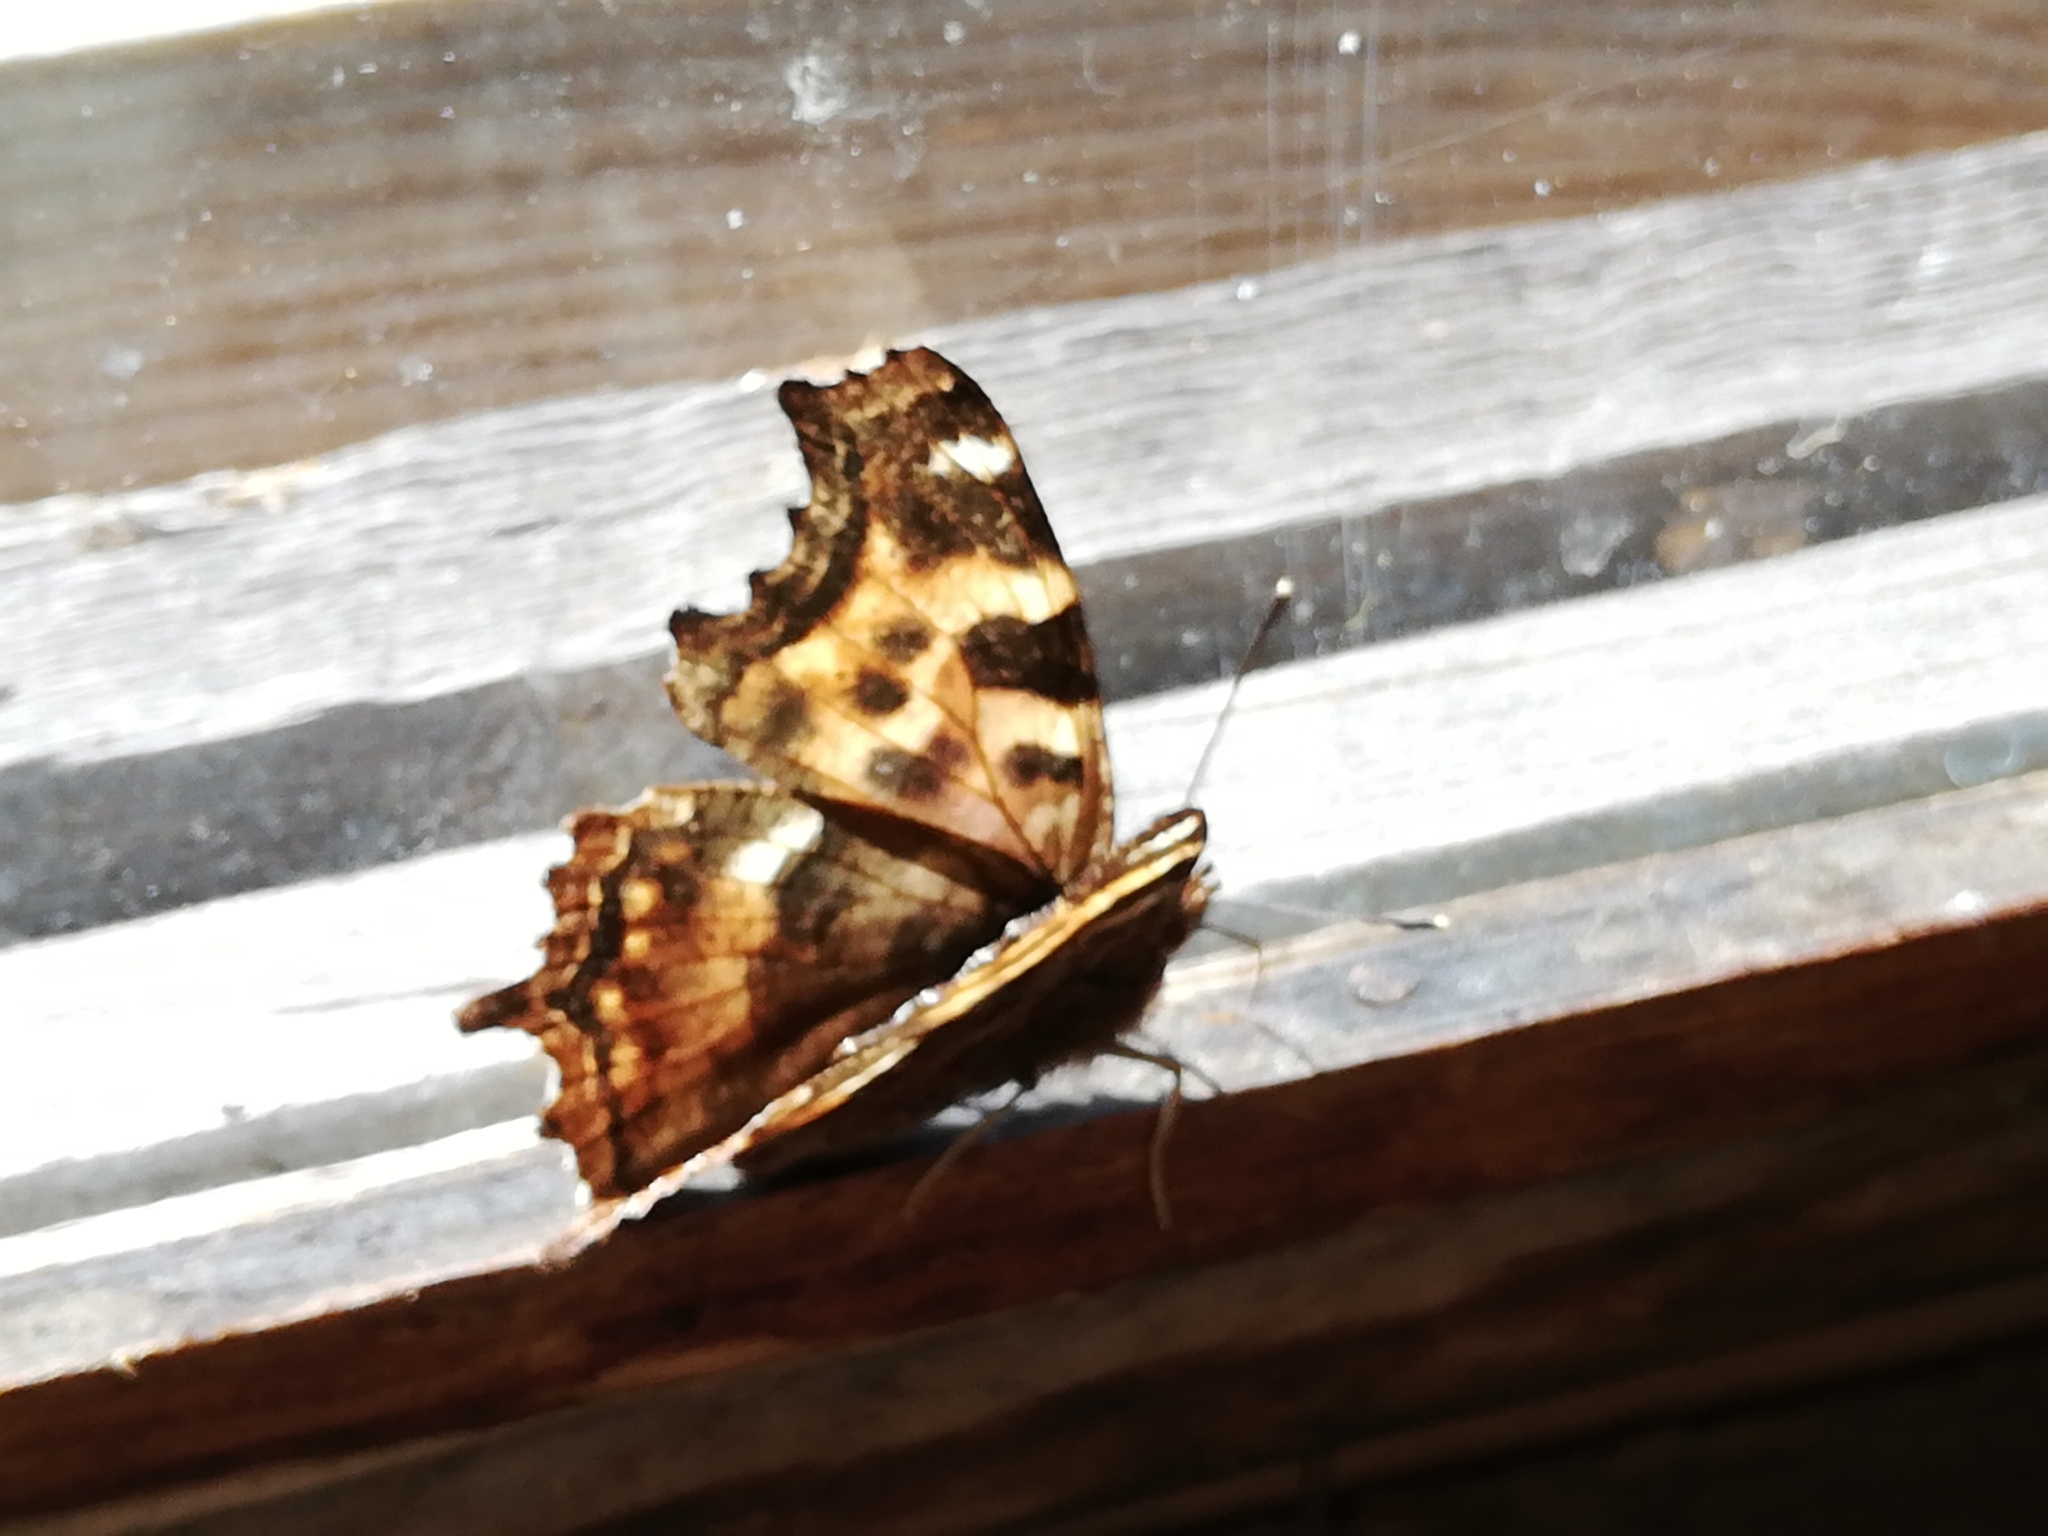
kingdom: Animalia
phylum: Arthropoda
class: Insecta
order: Lepidoptera
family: Nymphalidae
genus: Polygonia
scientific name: Polygonia vaualbum
